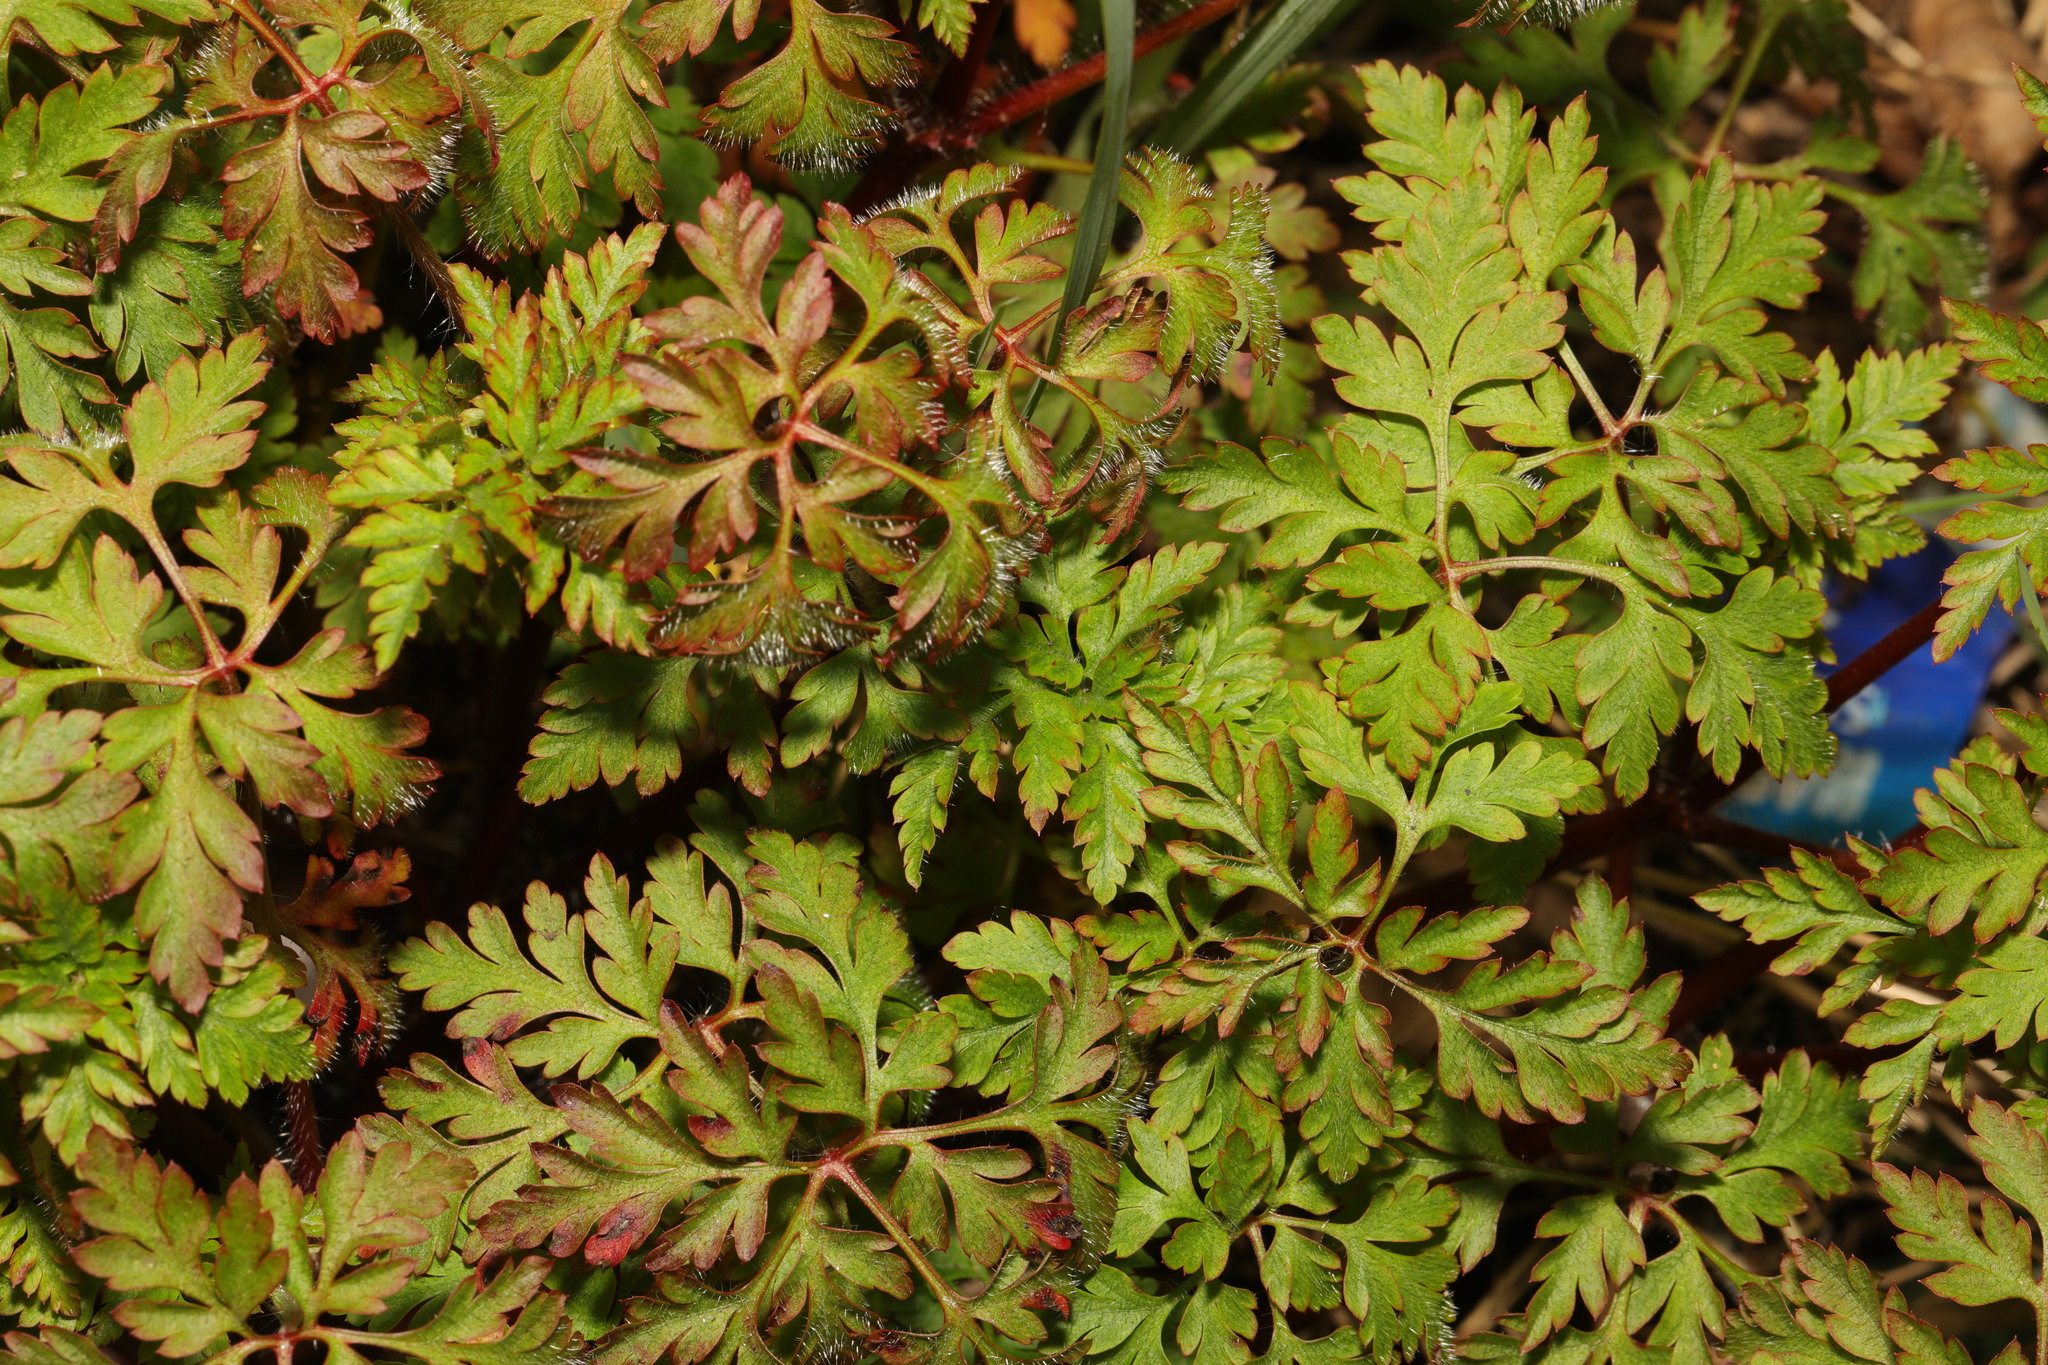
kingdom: Plantae
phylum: Tracheophyta
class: Magnoliopsida
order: Geraniales
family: Geraniaceae
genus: Geranium
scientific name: Geranium robertianum
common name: Herb-robert
